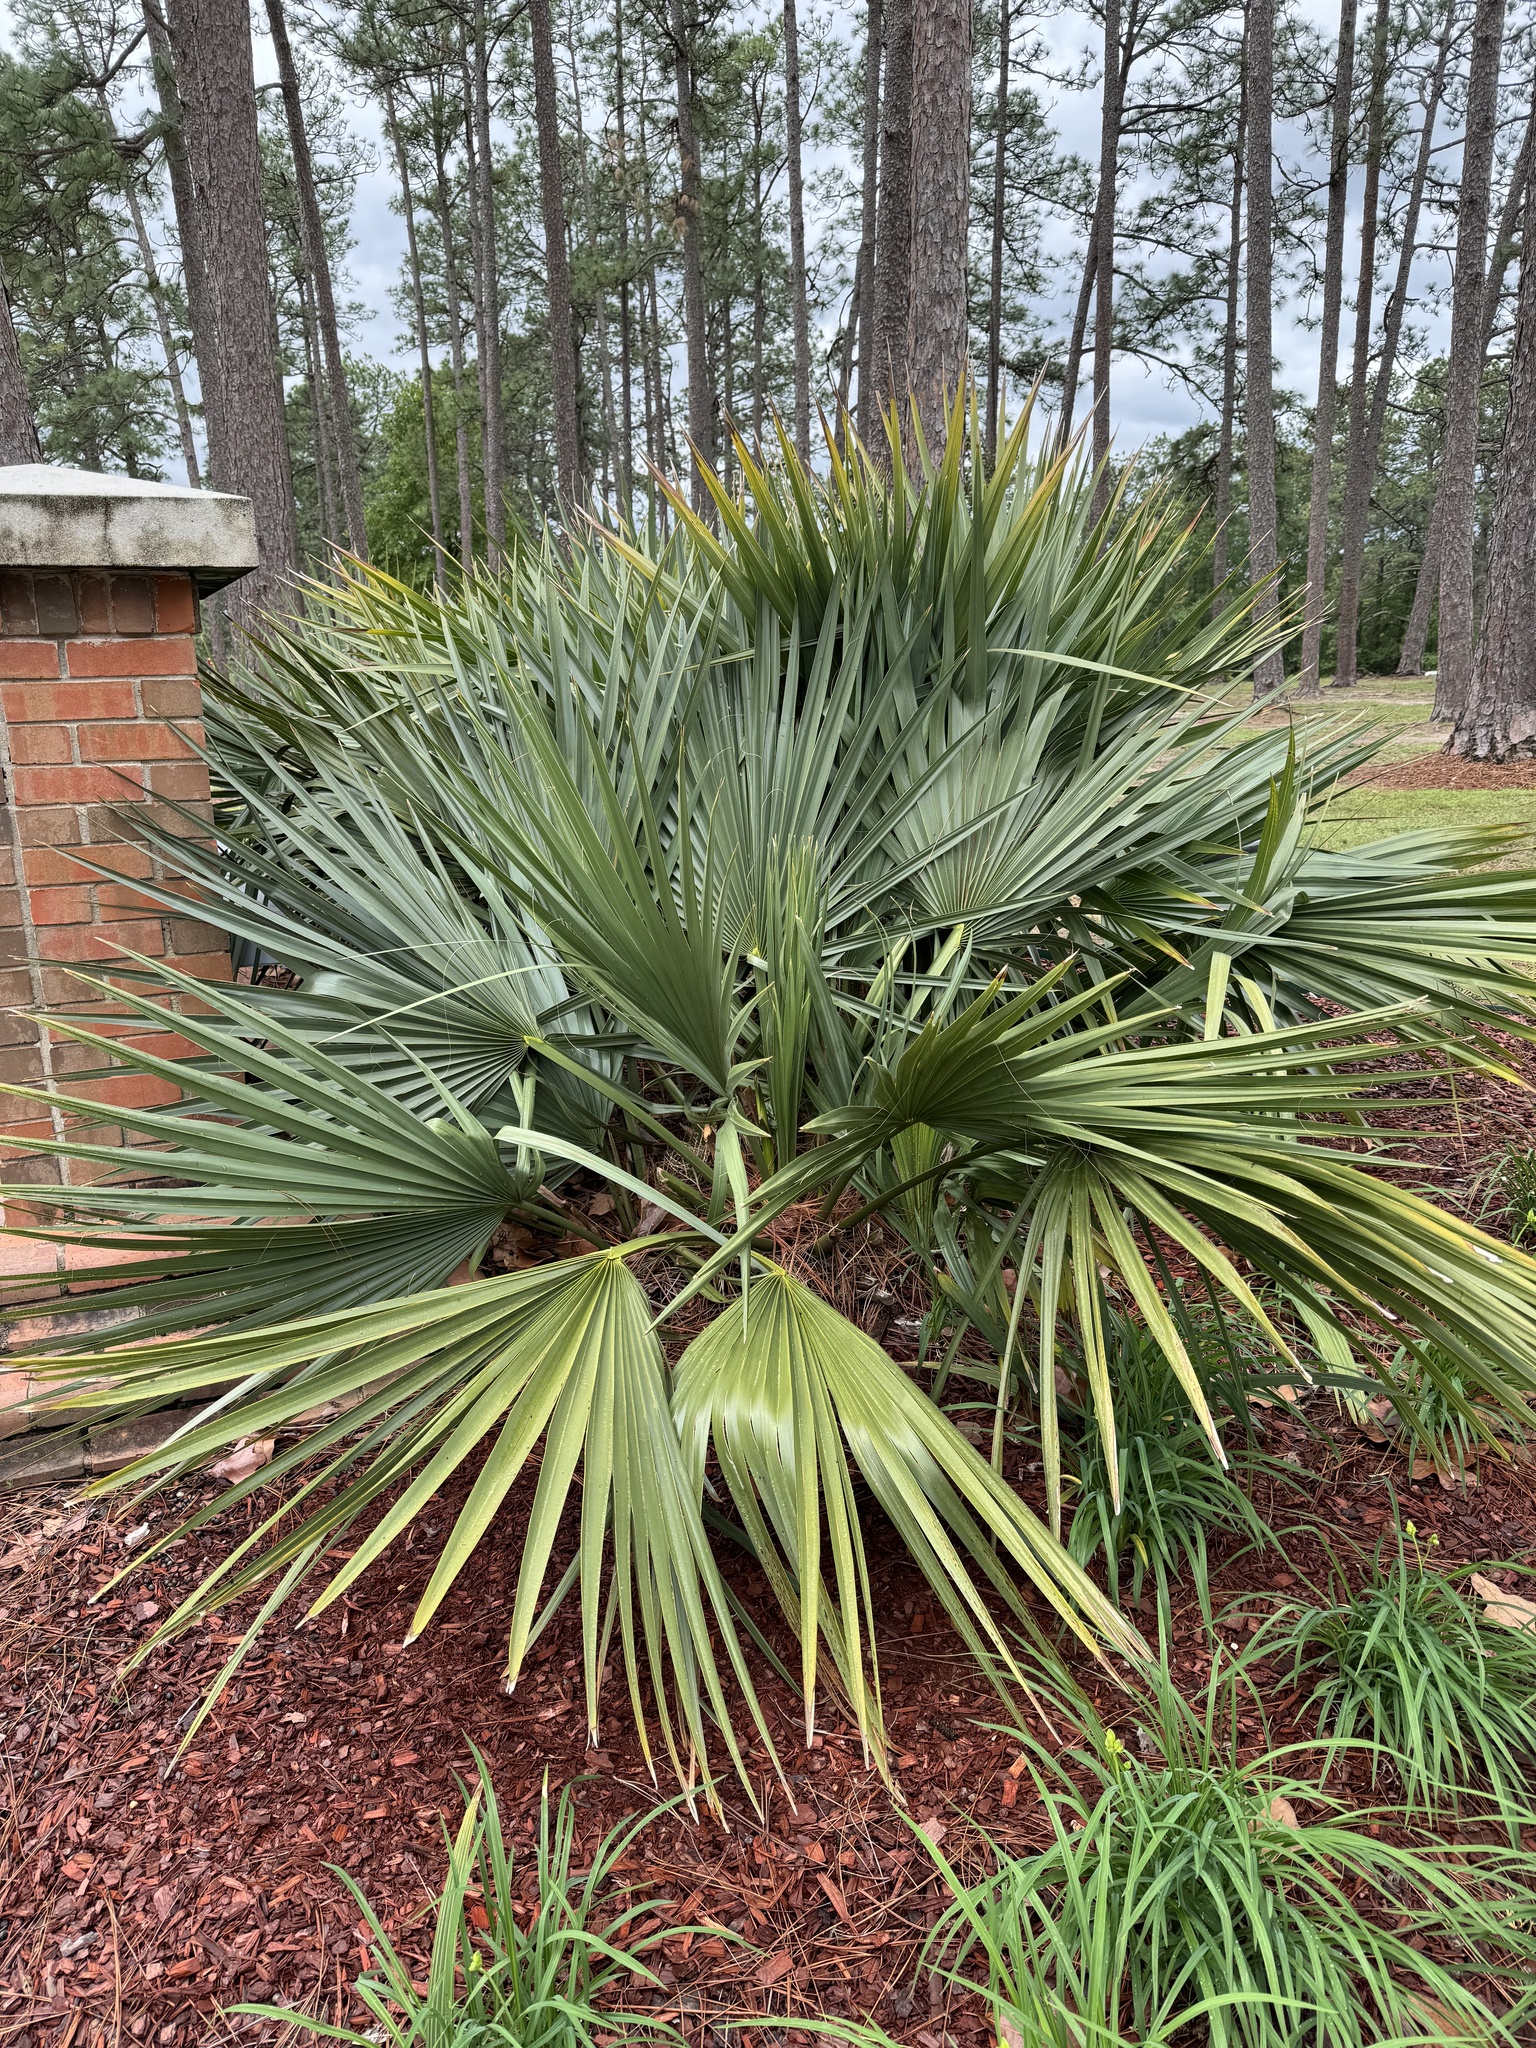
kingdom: Plantae
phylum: Tracheophyta
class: Liliopsida
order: Arecales
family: Arecaceae
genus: Sabal
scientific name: Sabal minor
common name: Dwarf palmetto
